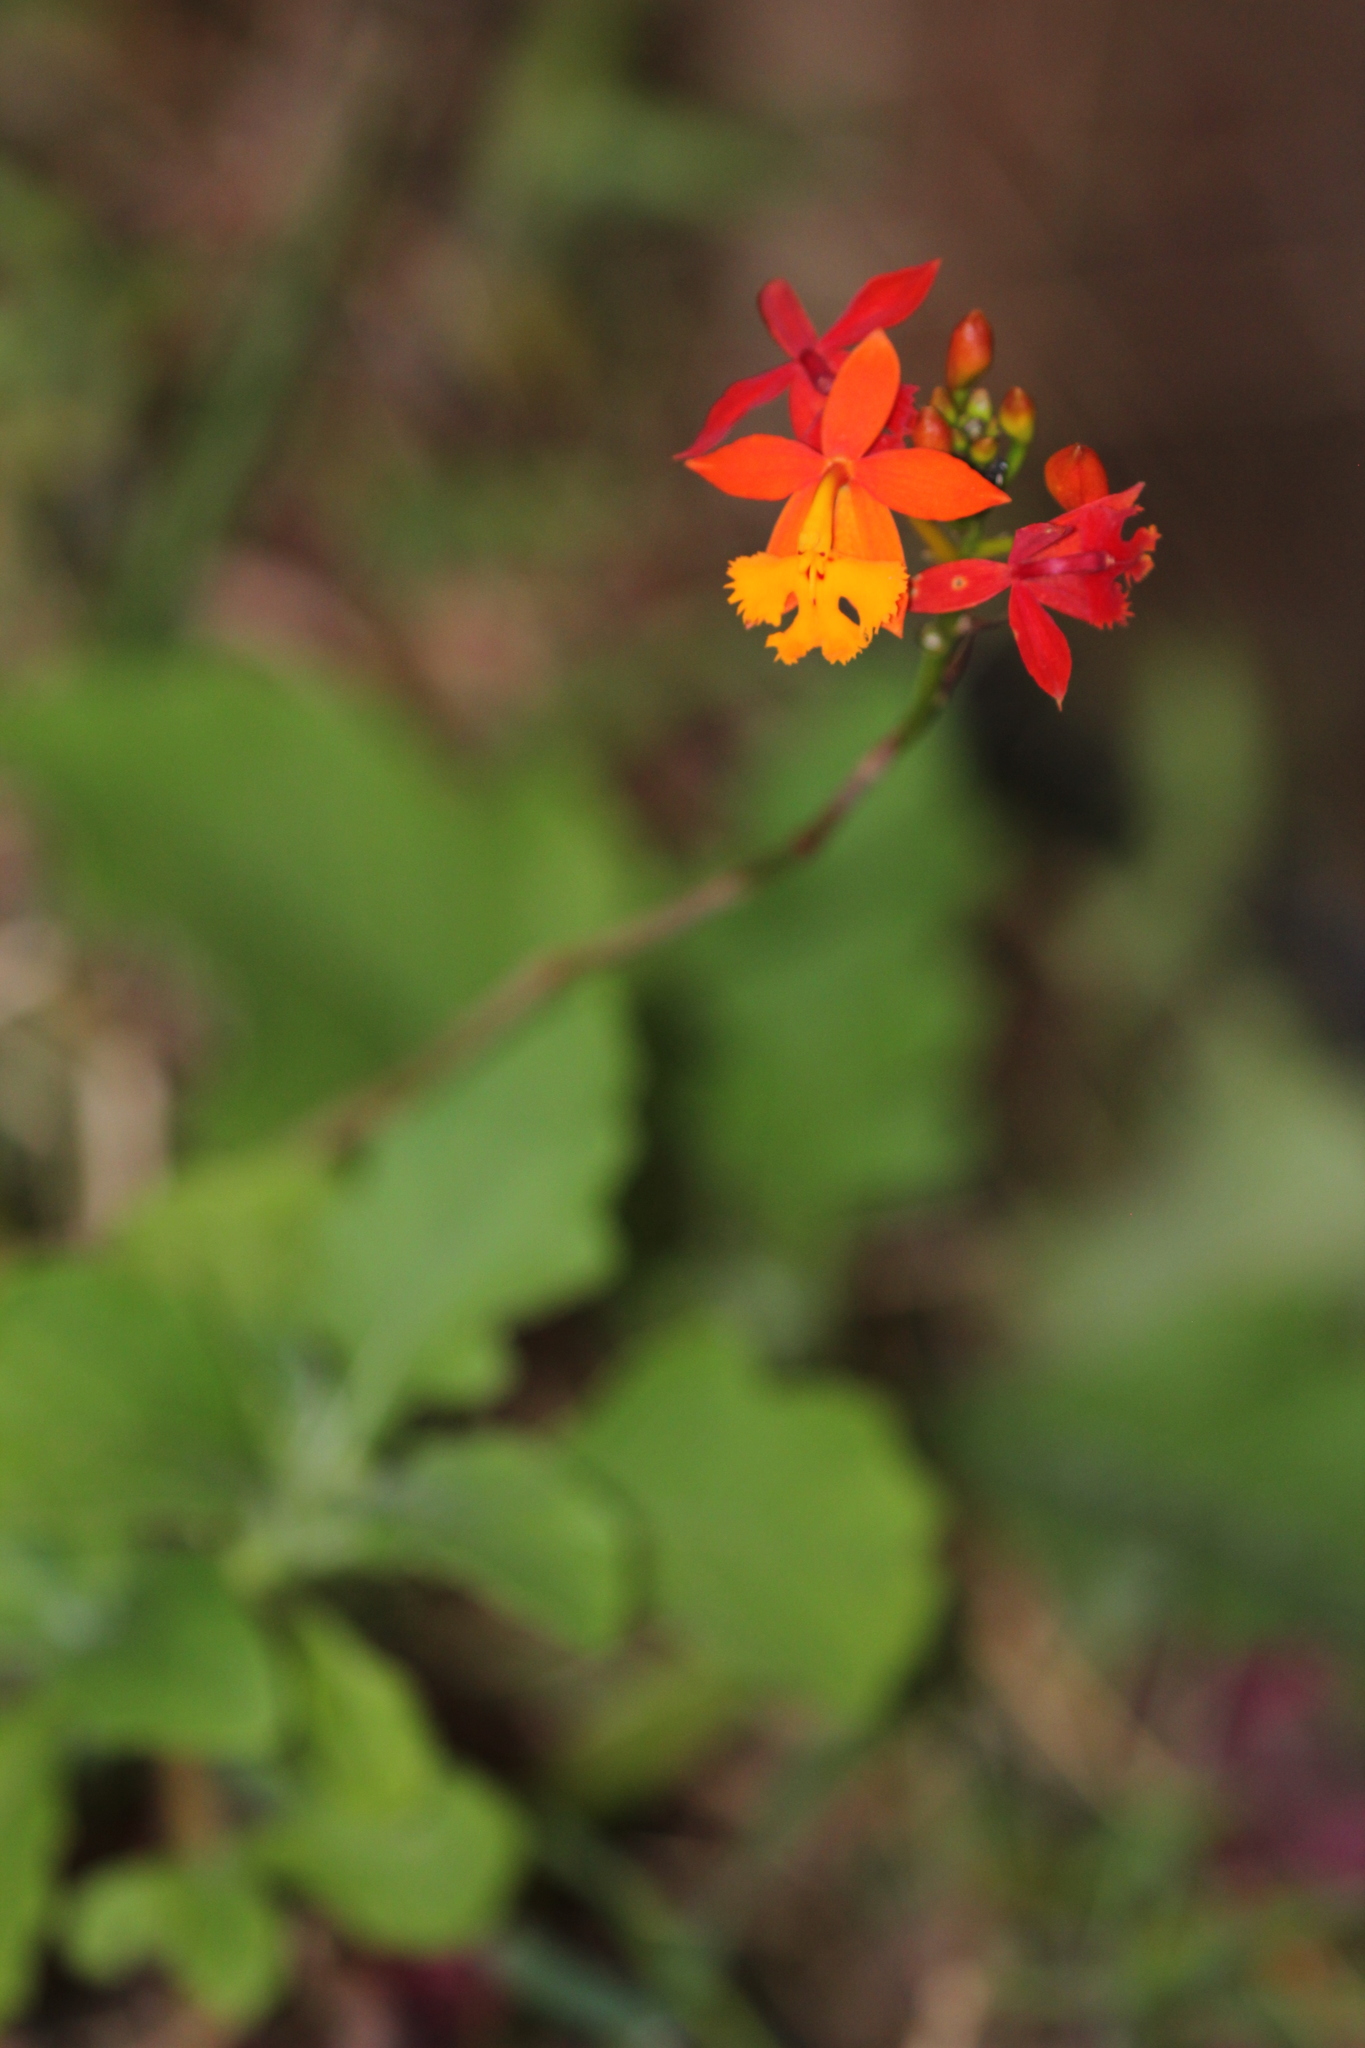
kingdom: Plantae
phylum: Tracheophyta
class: Liliopsida
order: Asparagales
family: Orchidaceae
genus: Epidendrum
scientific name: Epidendrum radicans
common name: Fire star orchid
